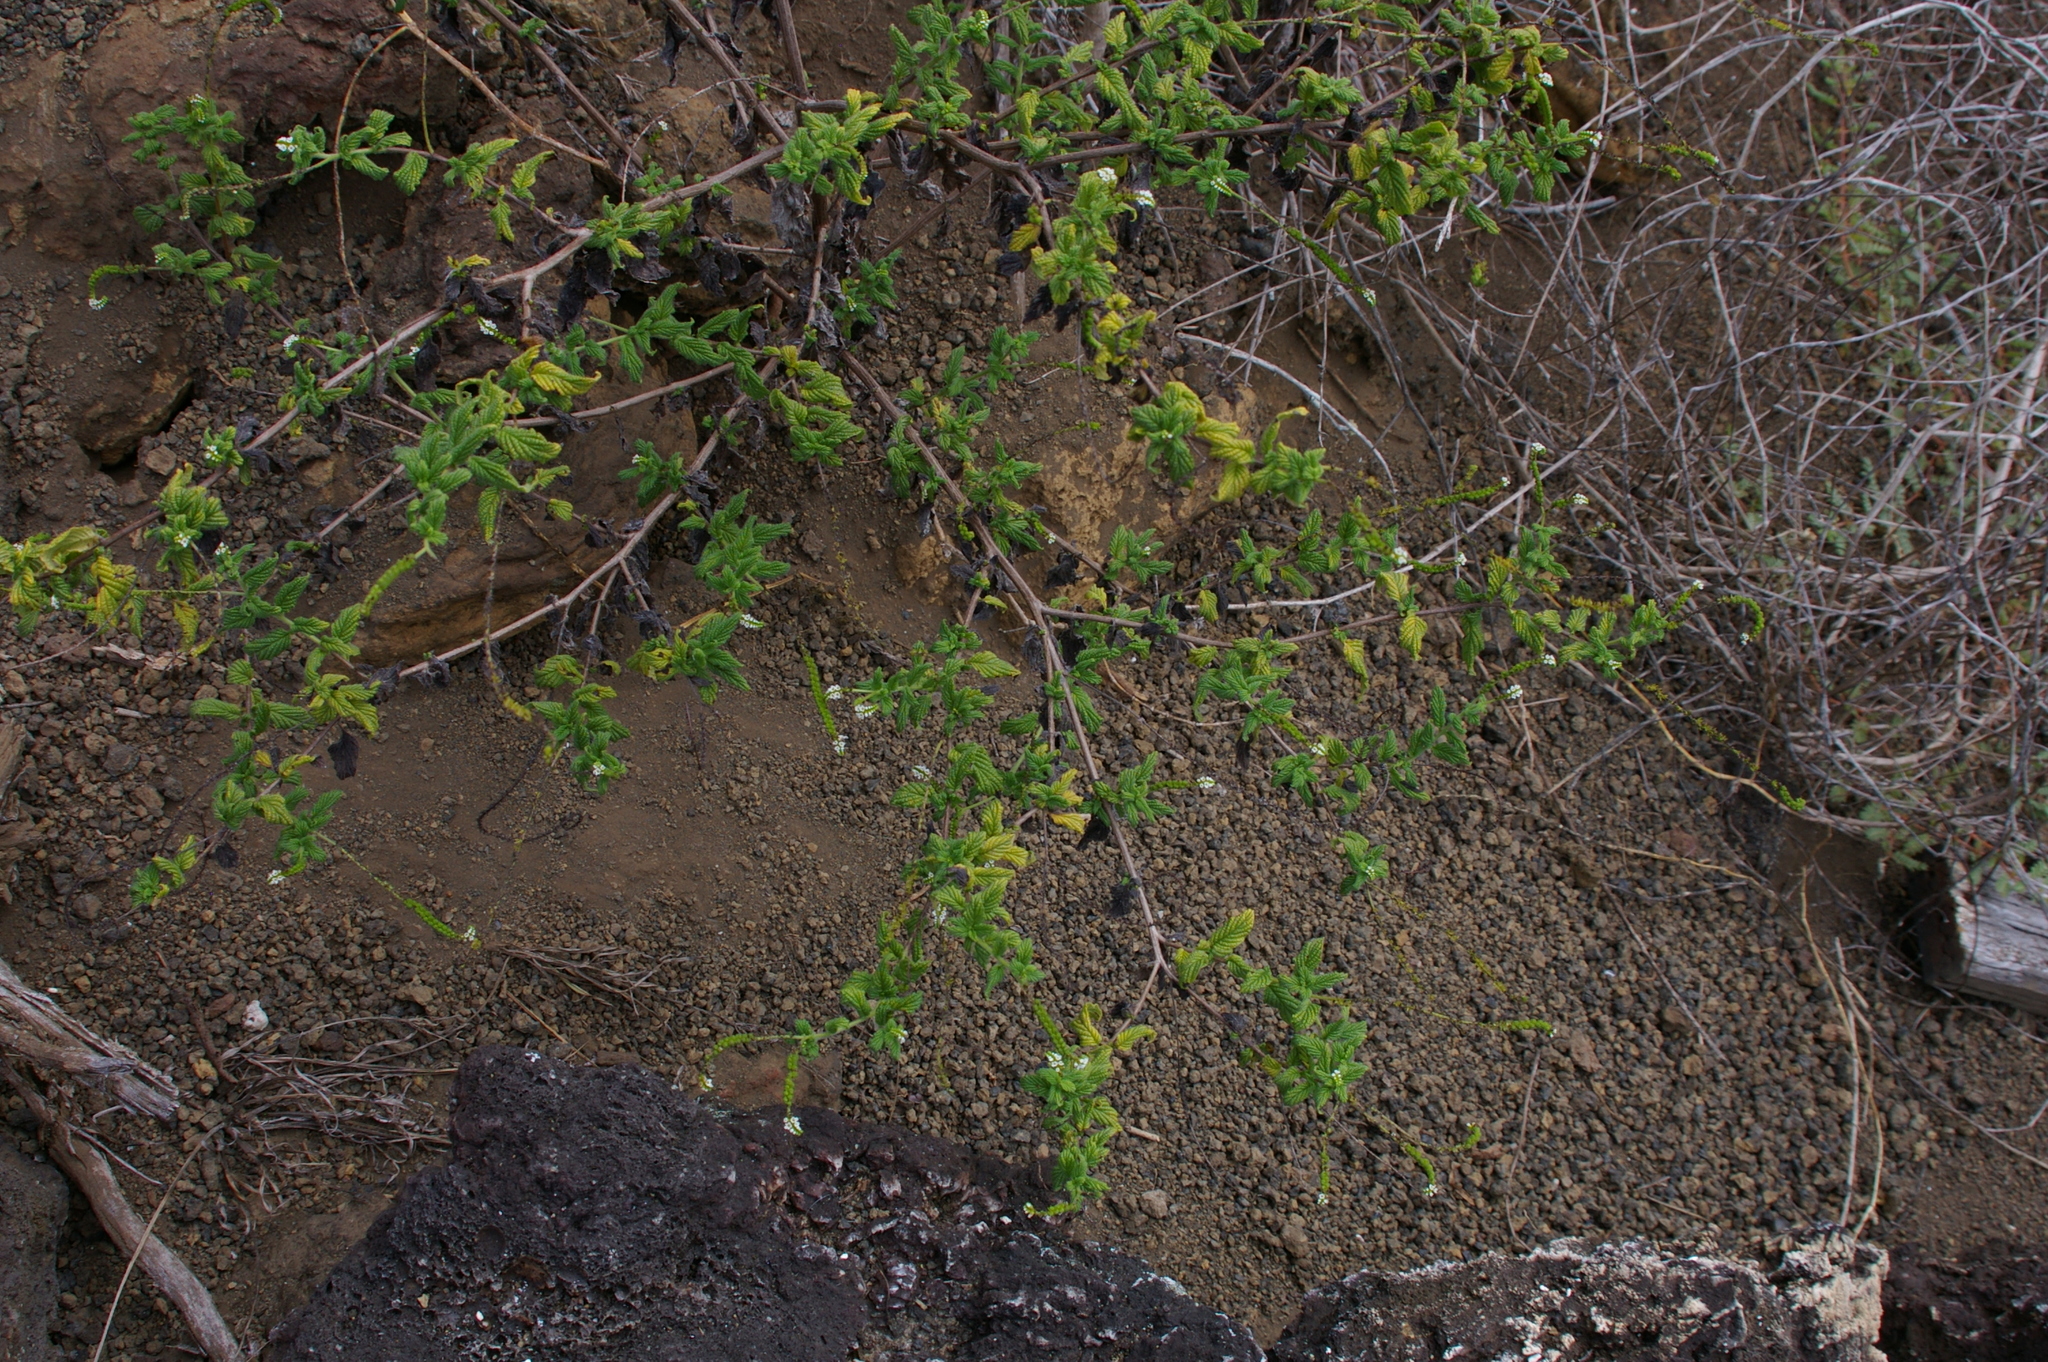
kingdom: Plantae
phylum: Tracheophyta
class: Magnoliopsida
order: Boraginales
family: Heliotropiaceae
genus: Heliotropium
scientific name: Heliotropium angiospermum
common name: Eye bright
